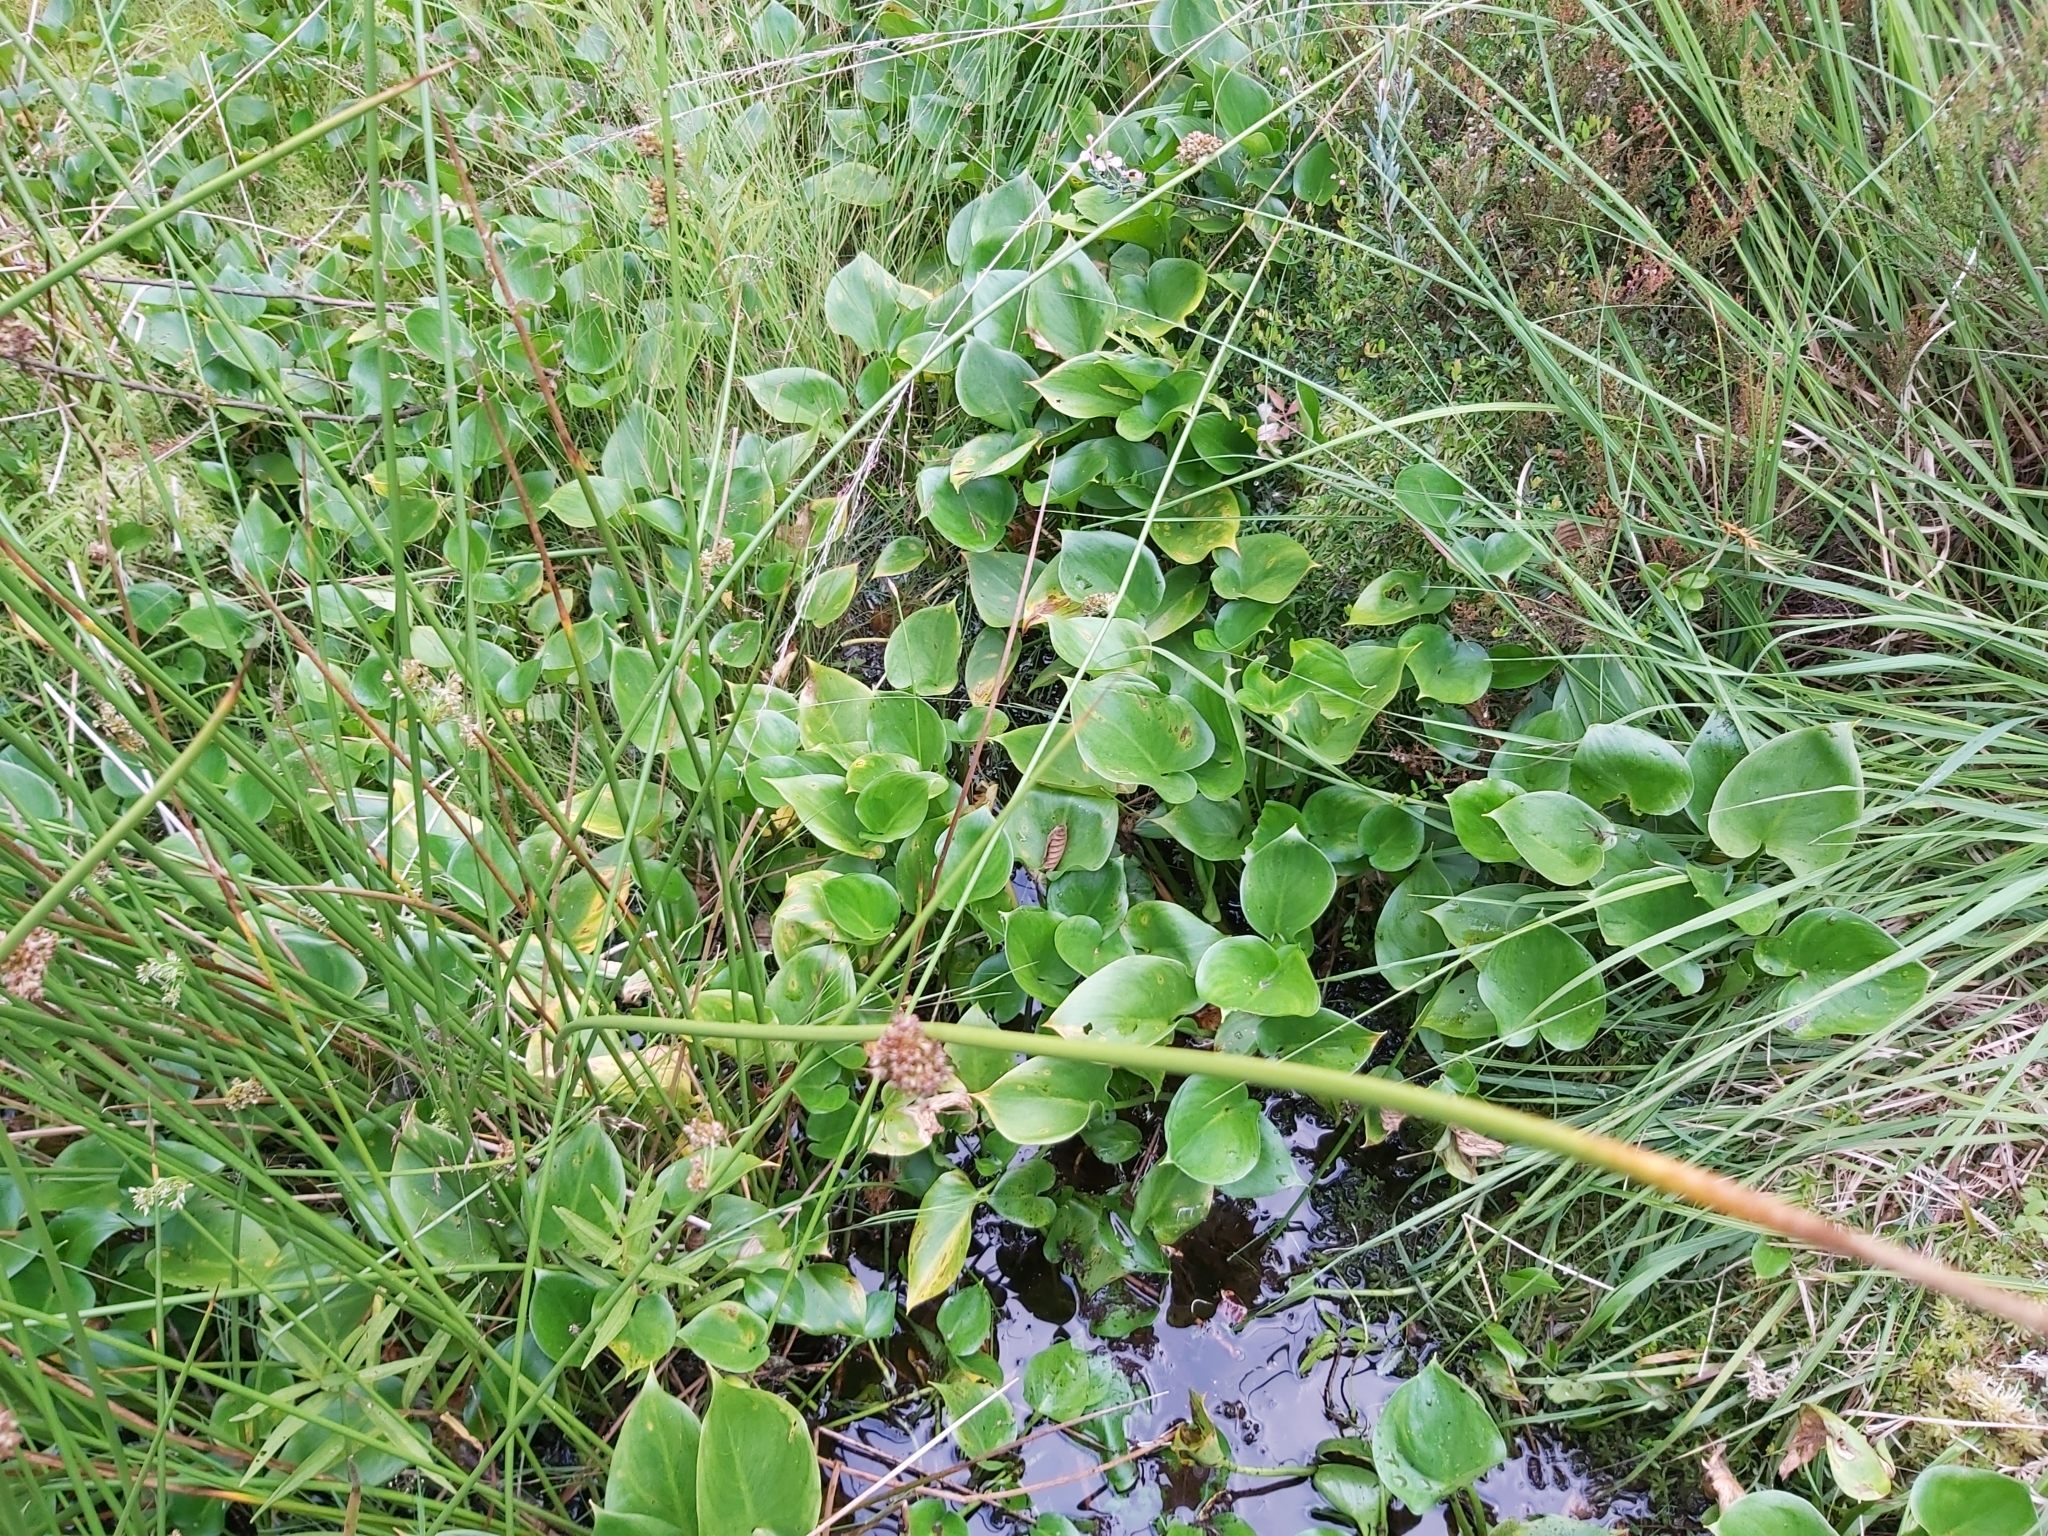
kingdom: Plantae
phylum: Tracheophyta
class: Liliopsida
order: Alismatales
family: Araceae
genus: Calla
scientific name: Calla palustris
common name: Bog arum
